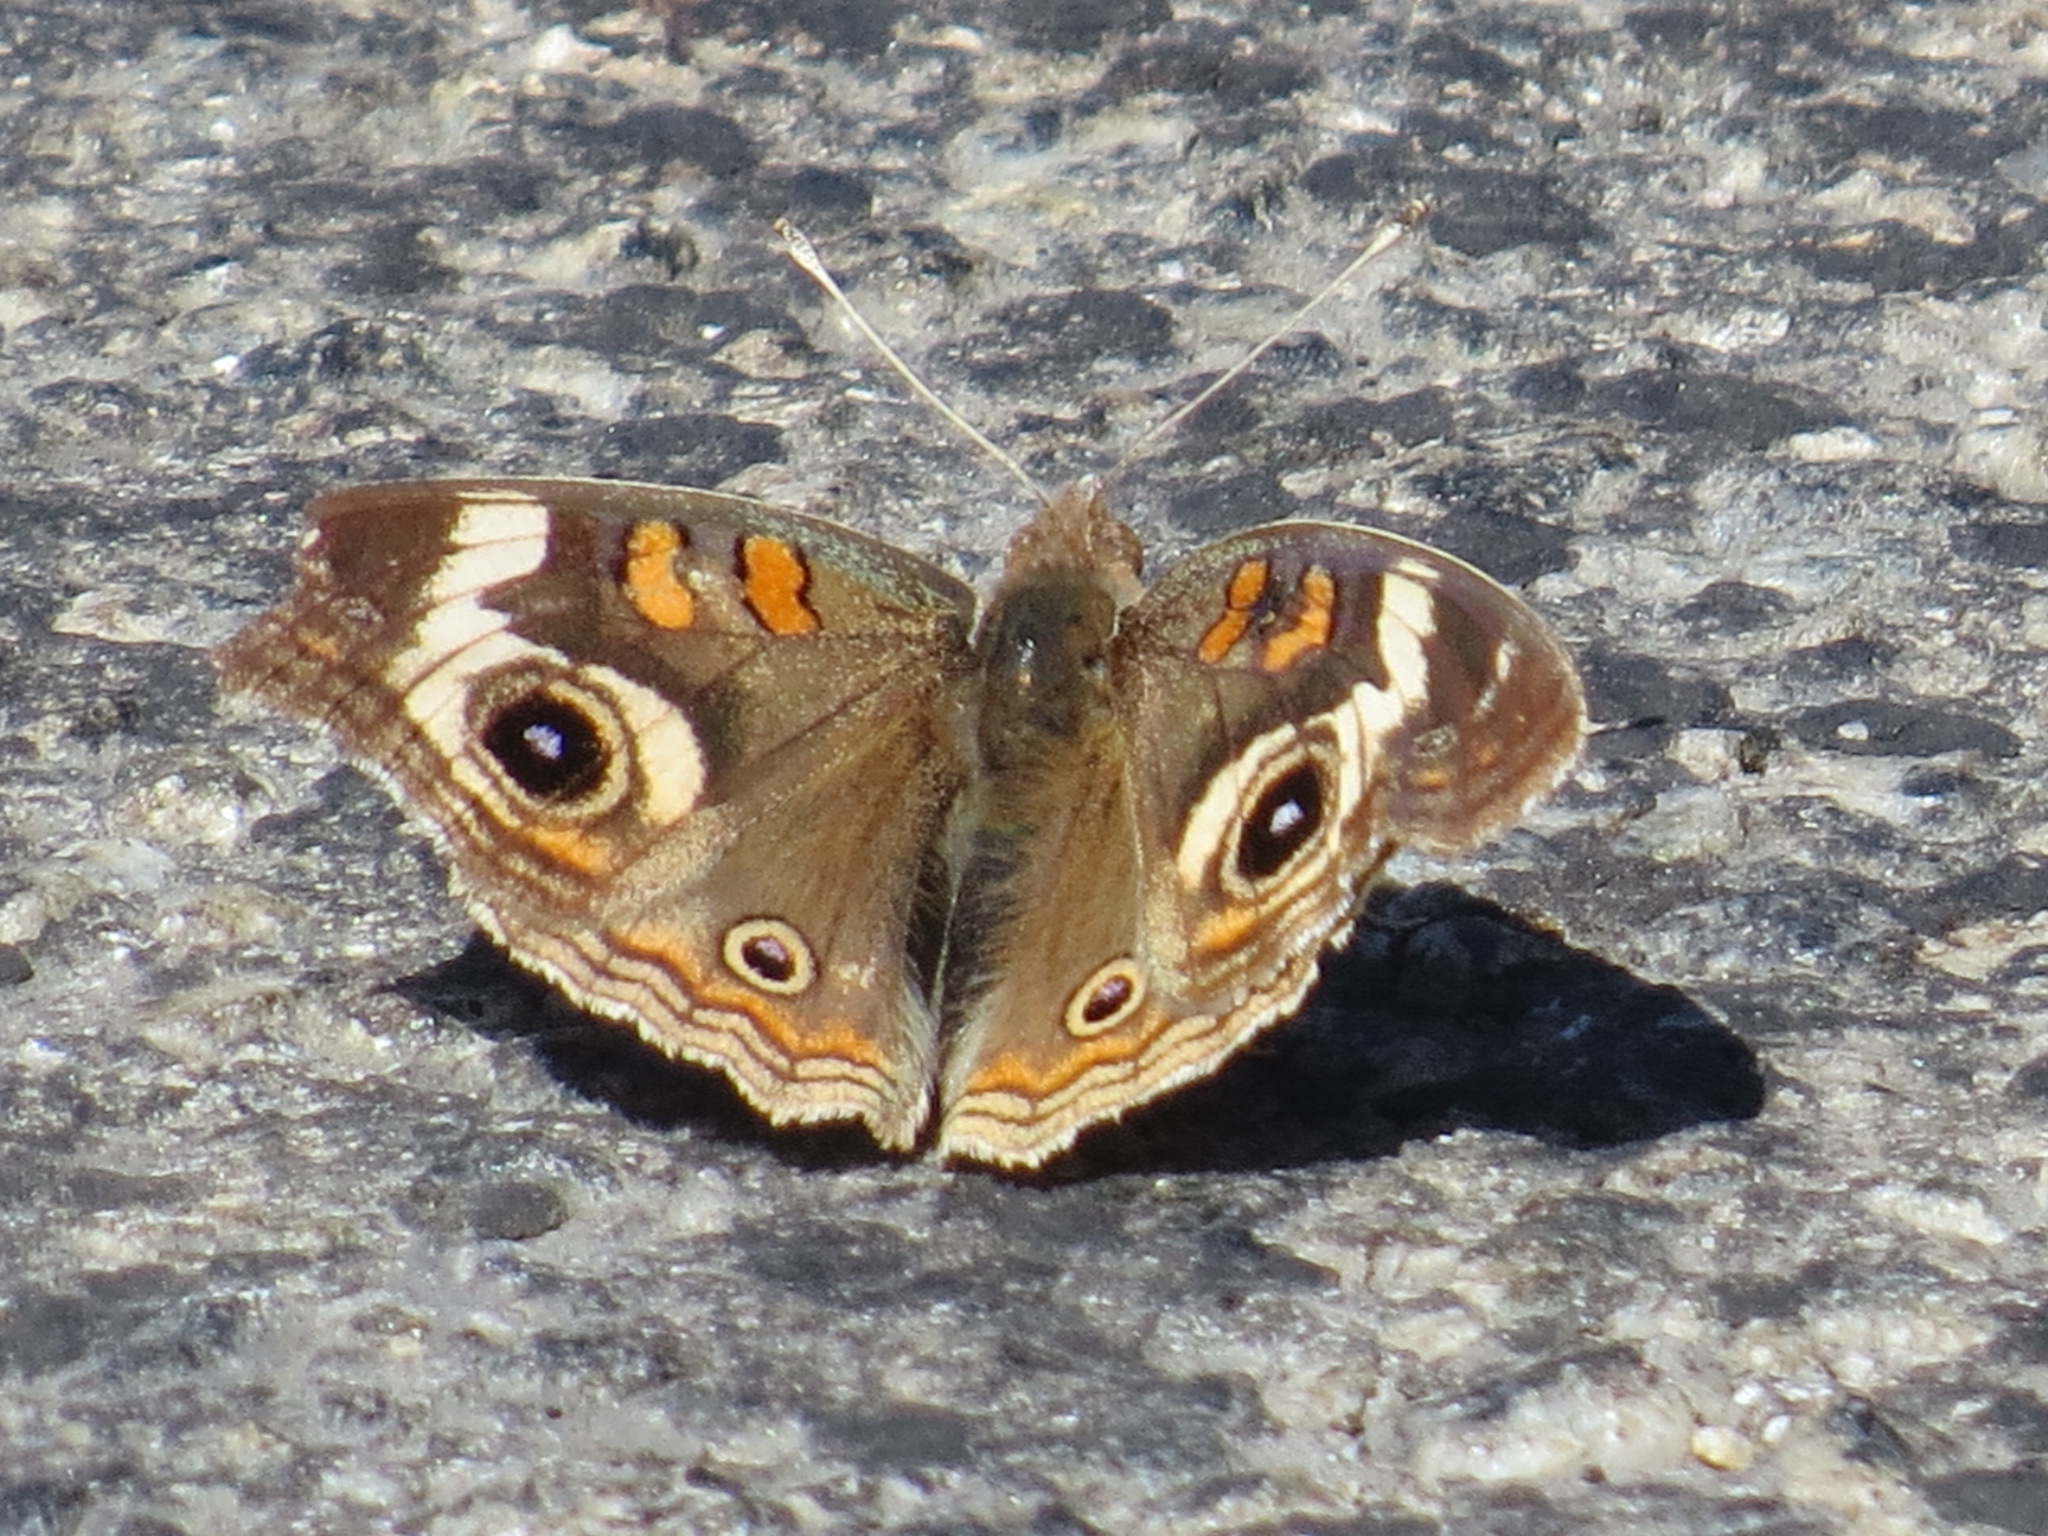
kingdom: Animalia
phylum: Arthropoda
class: Insecta
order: Lepidoptera
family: Nymphalidae
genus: Junonia
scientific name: Junonia grisea
